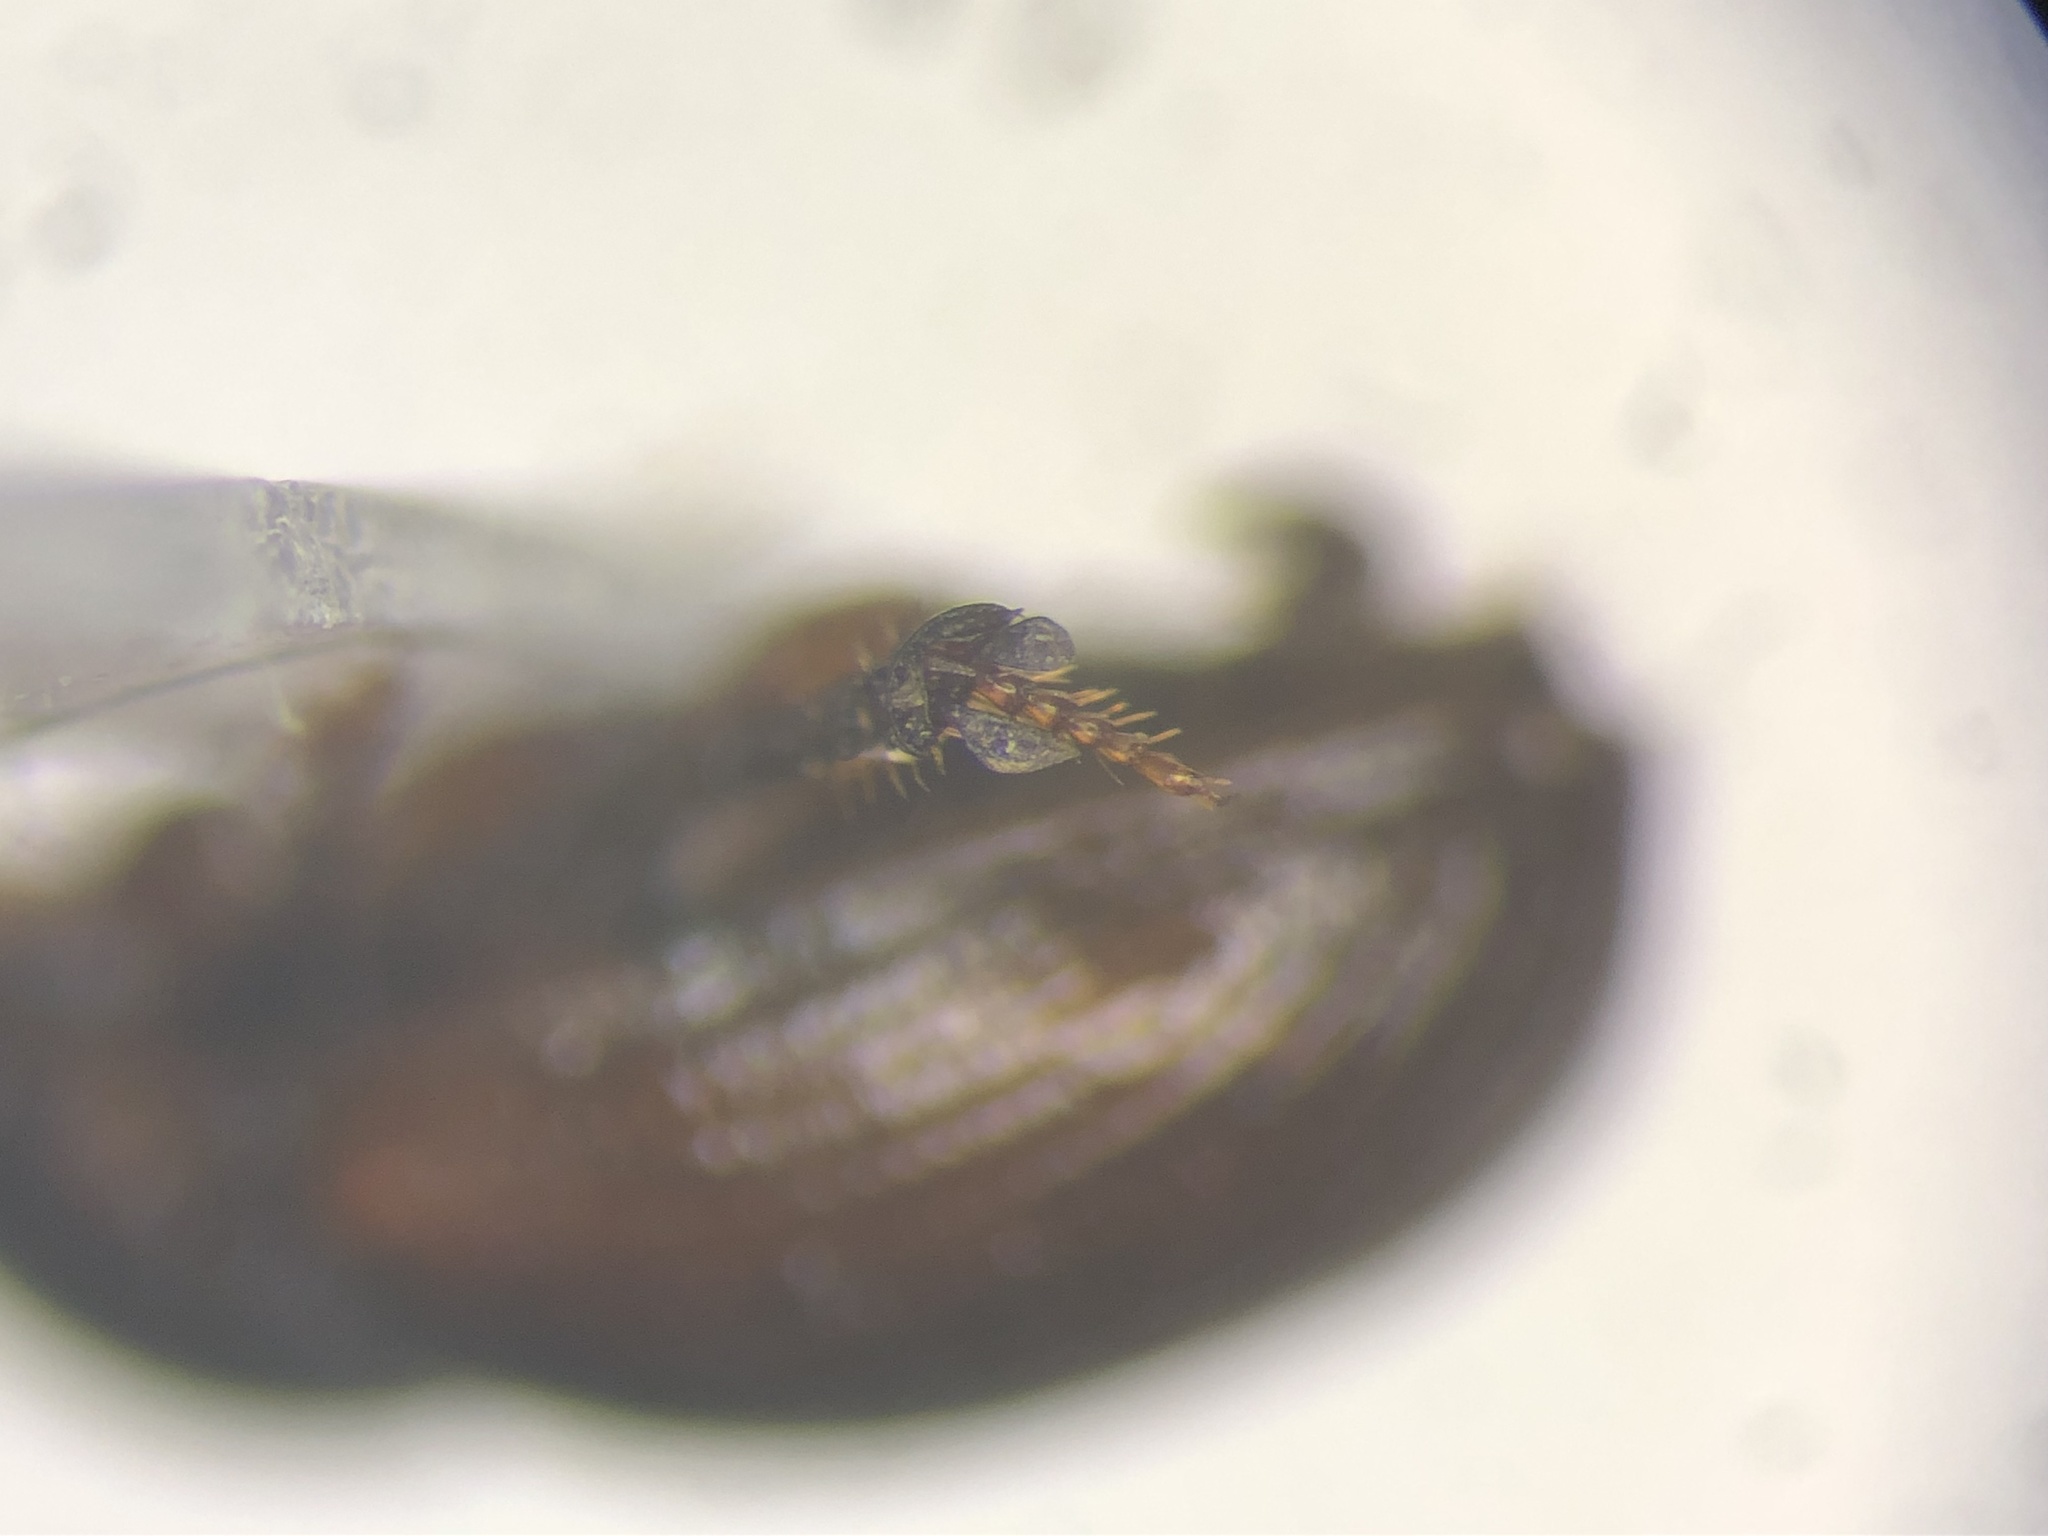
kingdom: Animalia
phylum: Arthropoda
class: Insecta
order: Coleoptera
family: Scarabaeidae
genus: Aegialia
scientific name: Aegialia opifex
